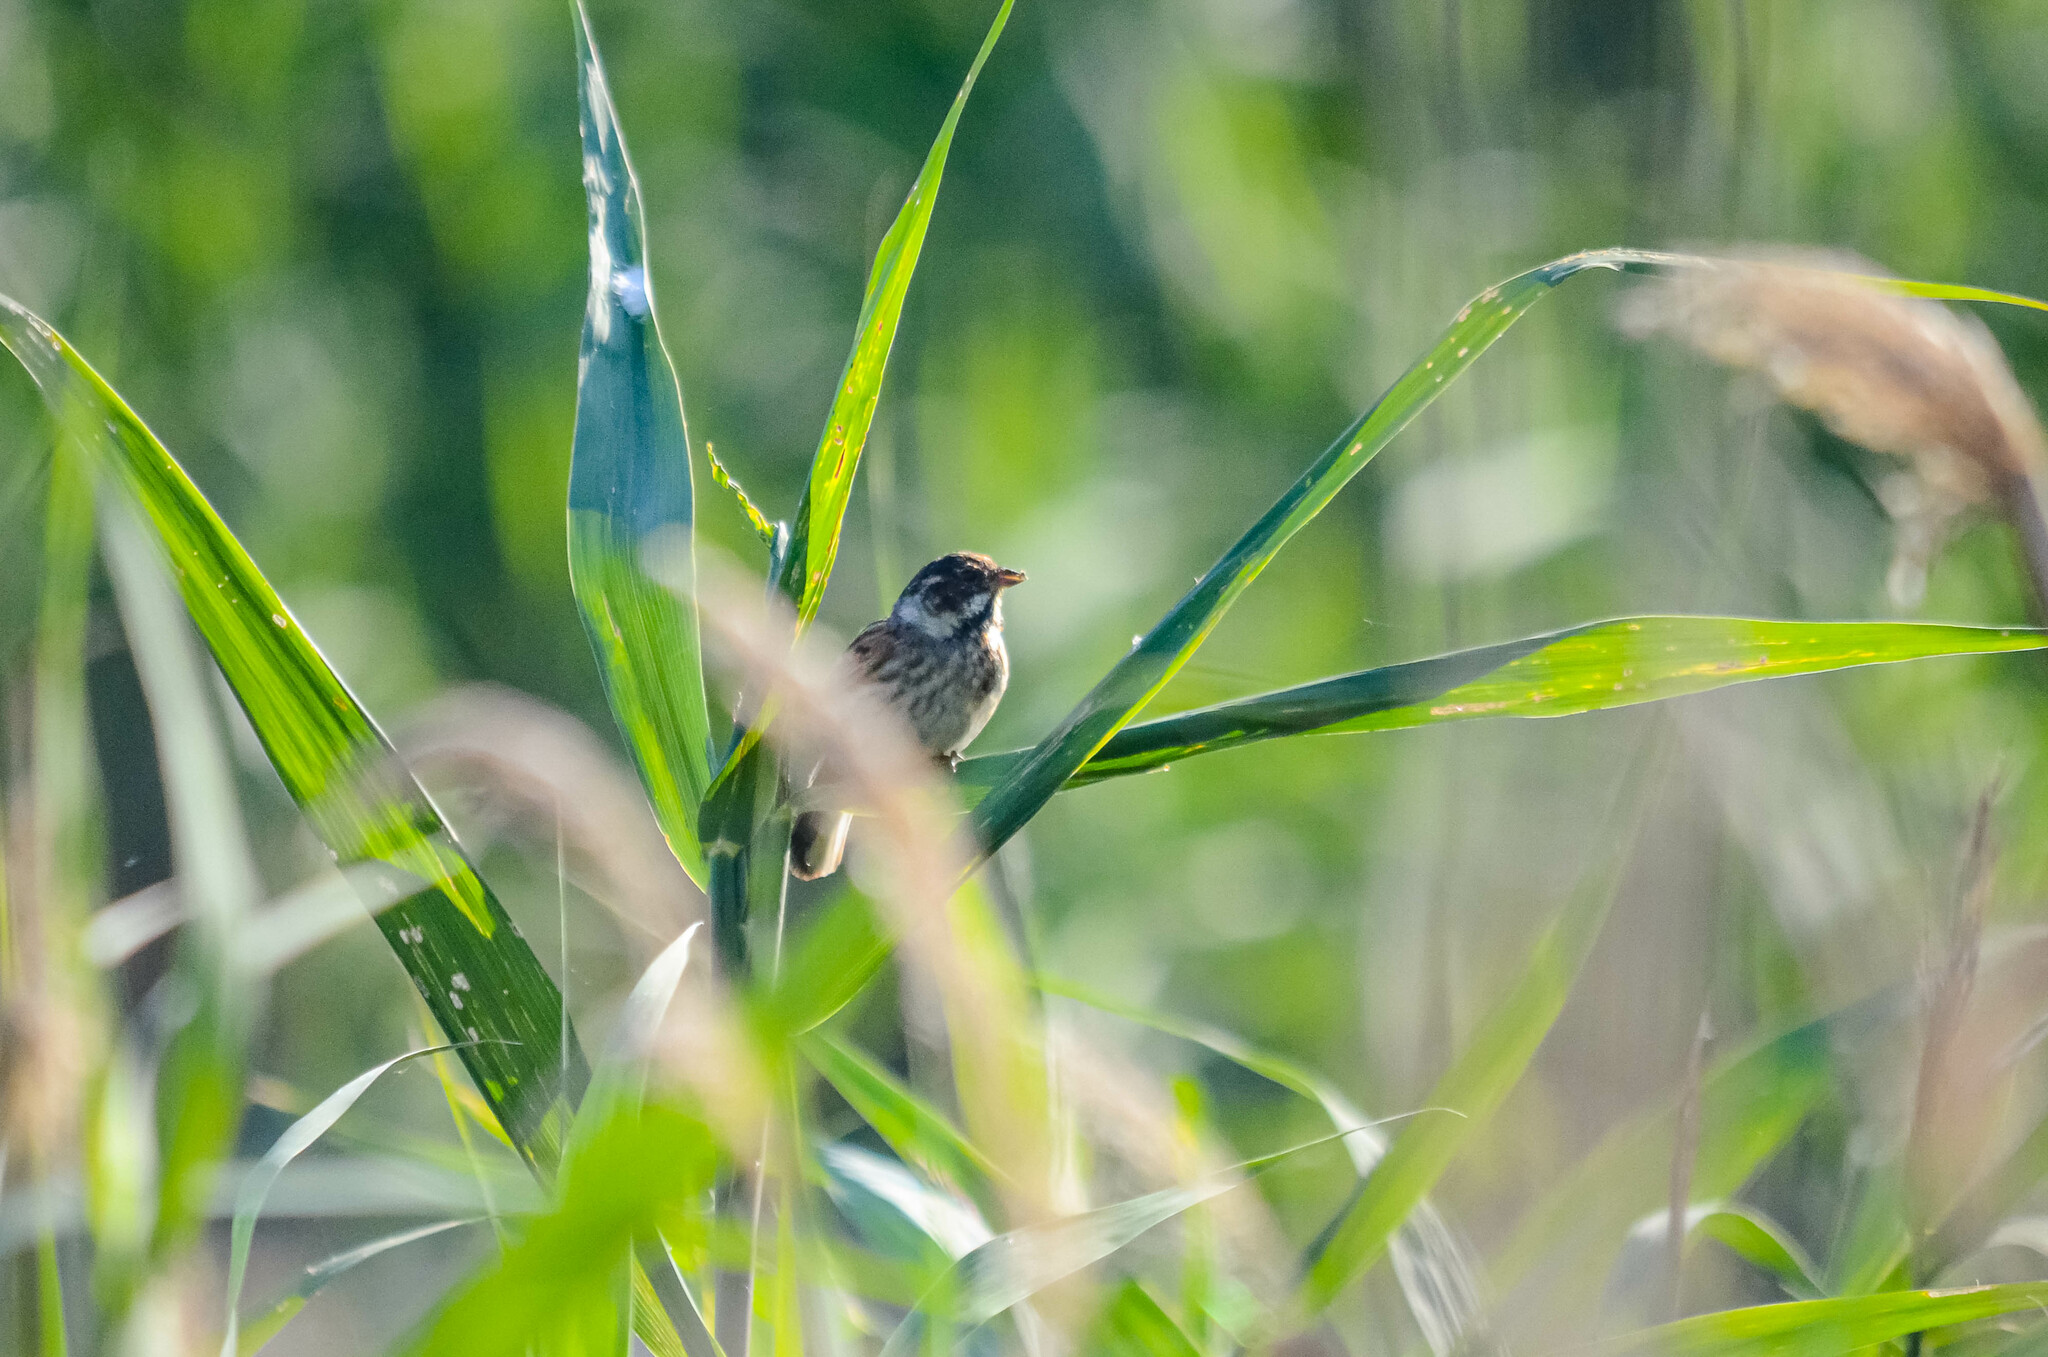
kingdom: Animalia
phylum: Chordata
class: Aves
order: Passeriformes
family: Emberizidae
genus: Emberiza
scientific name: Emberiza schoeniclus
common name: Reed bunting
